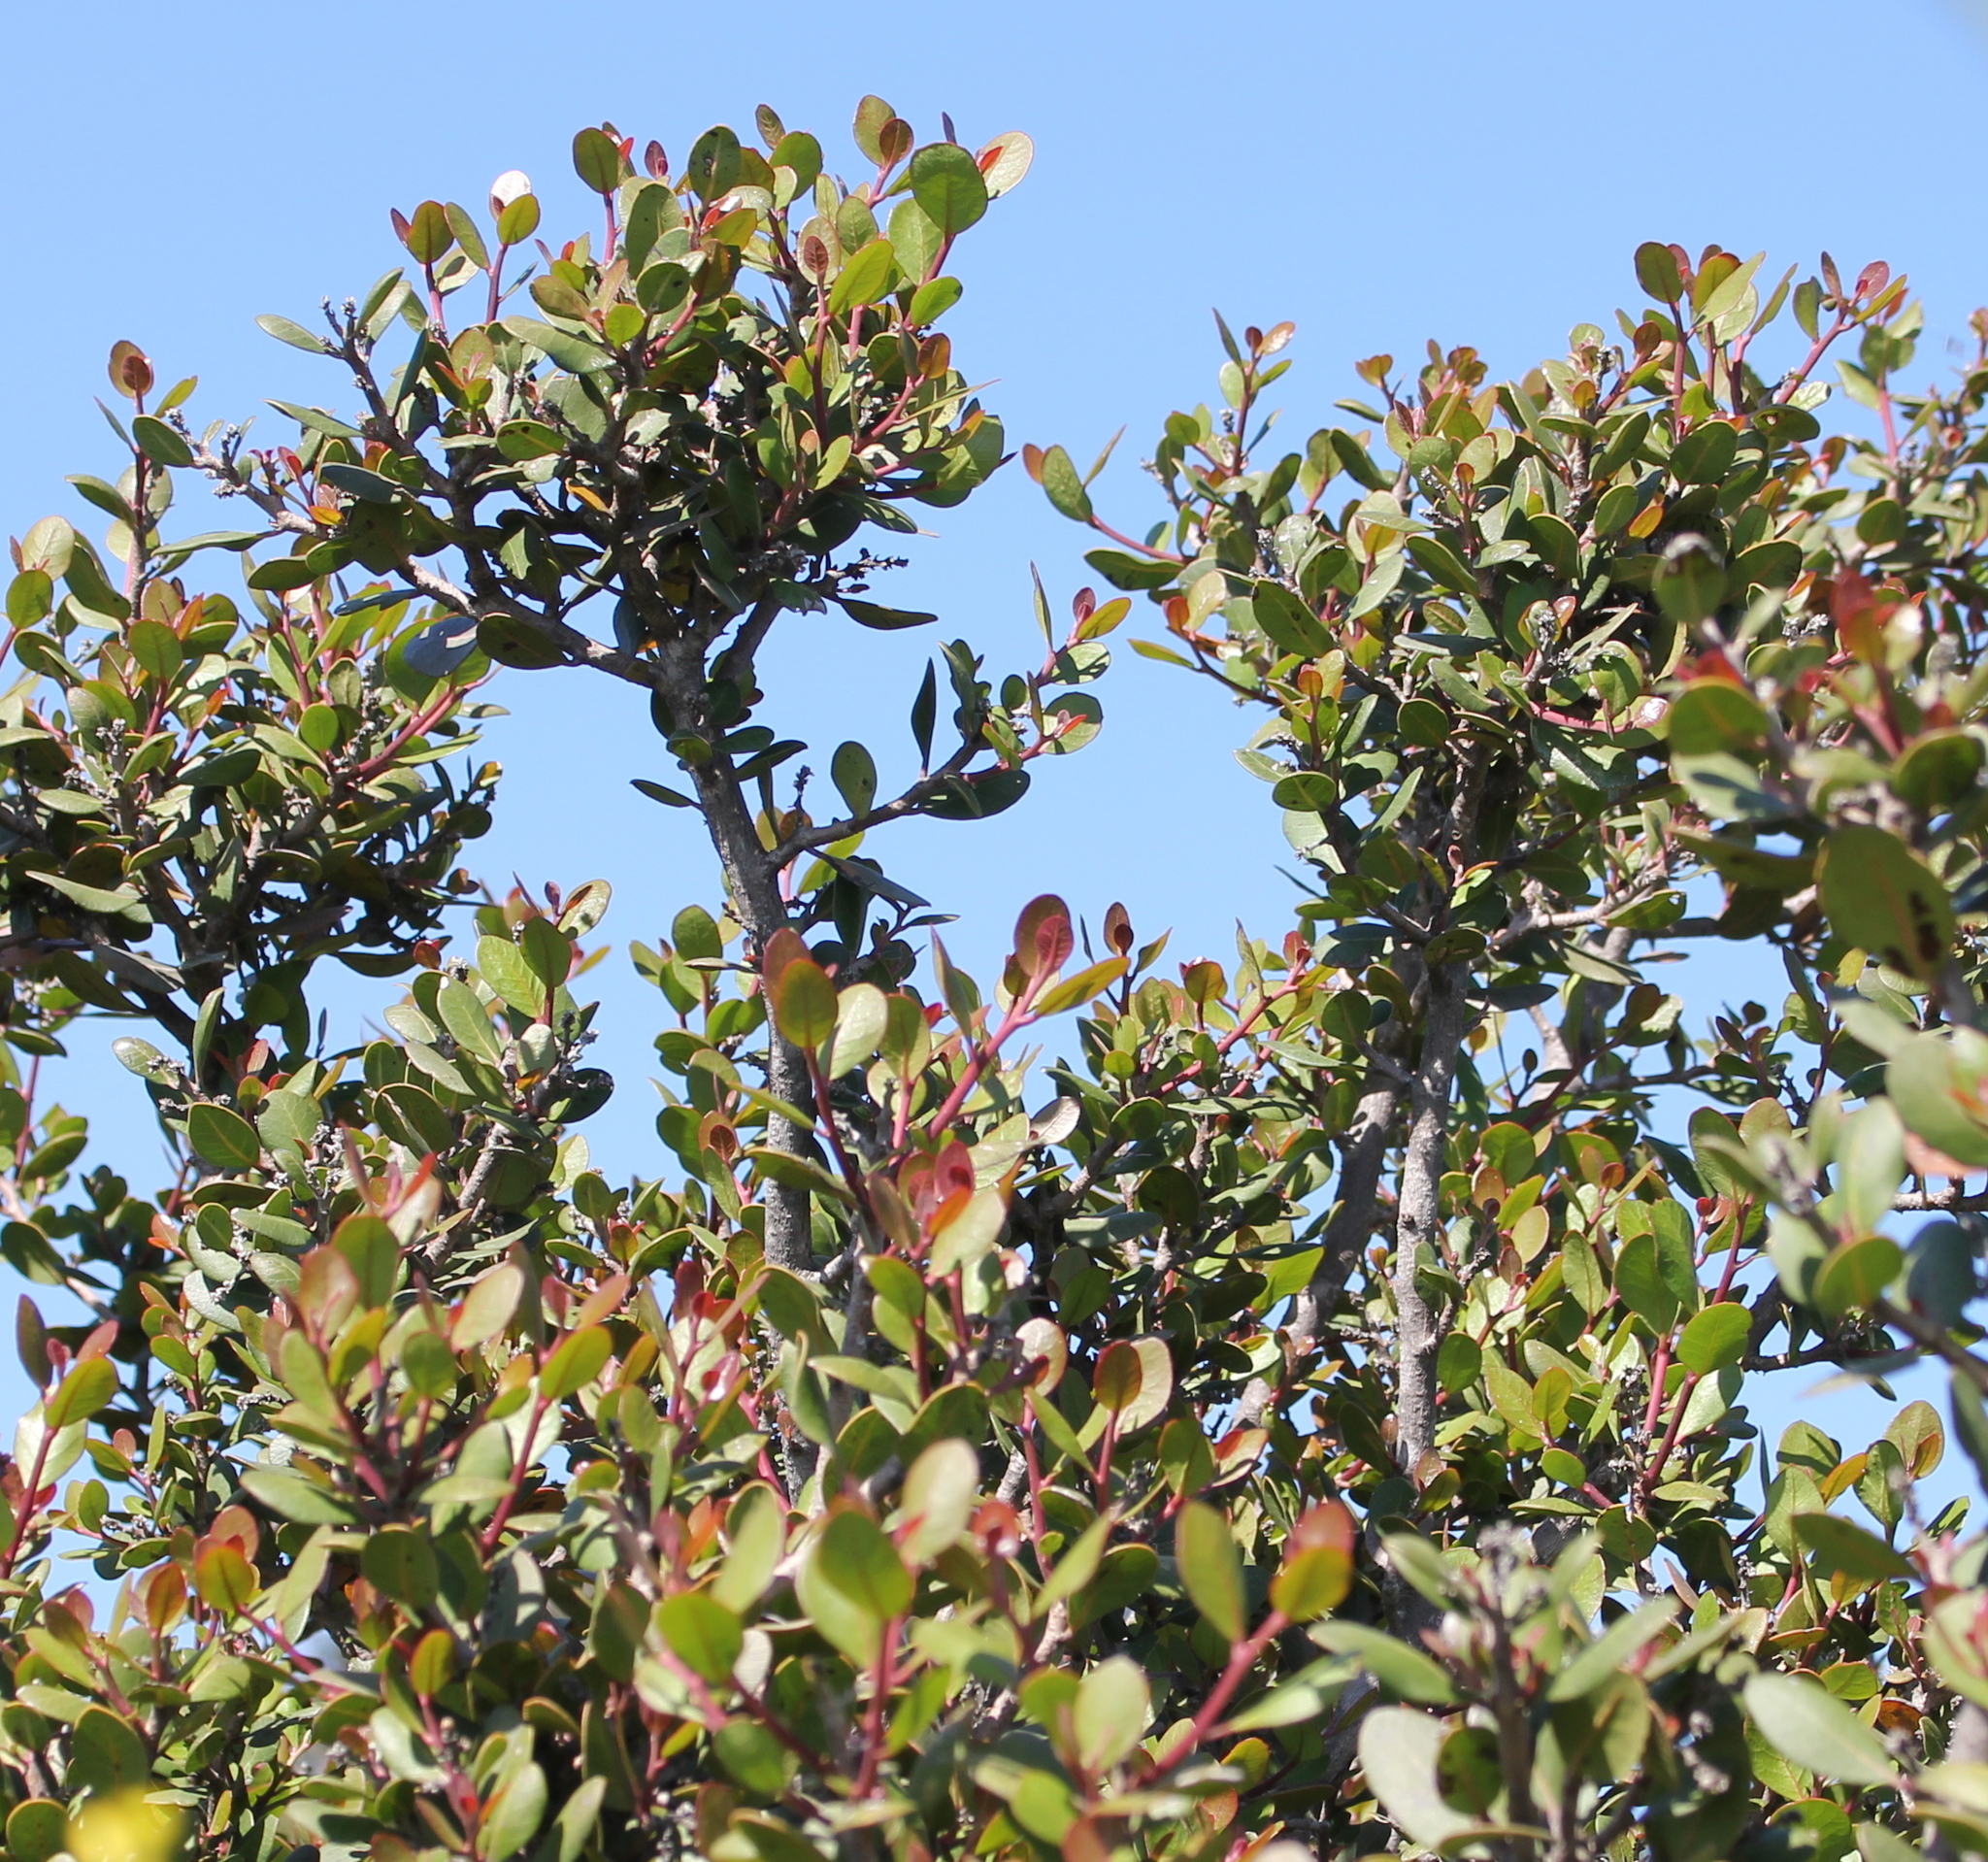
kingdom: Plantae
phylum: Tracheophyta
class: Magnoliopsida
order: Sapindales
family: Anacardiaceae
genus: Rhus
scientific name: Rhus integrifolia
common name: Lemonade sumac
